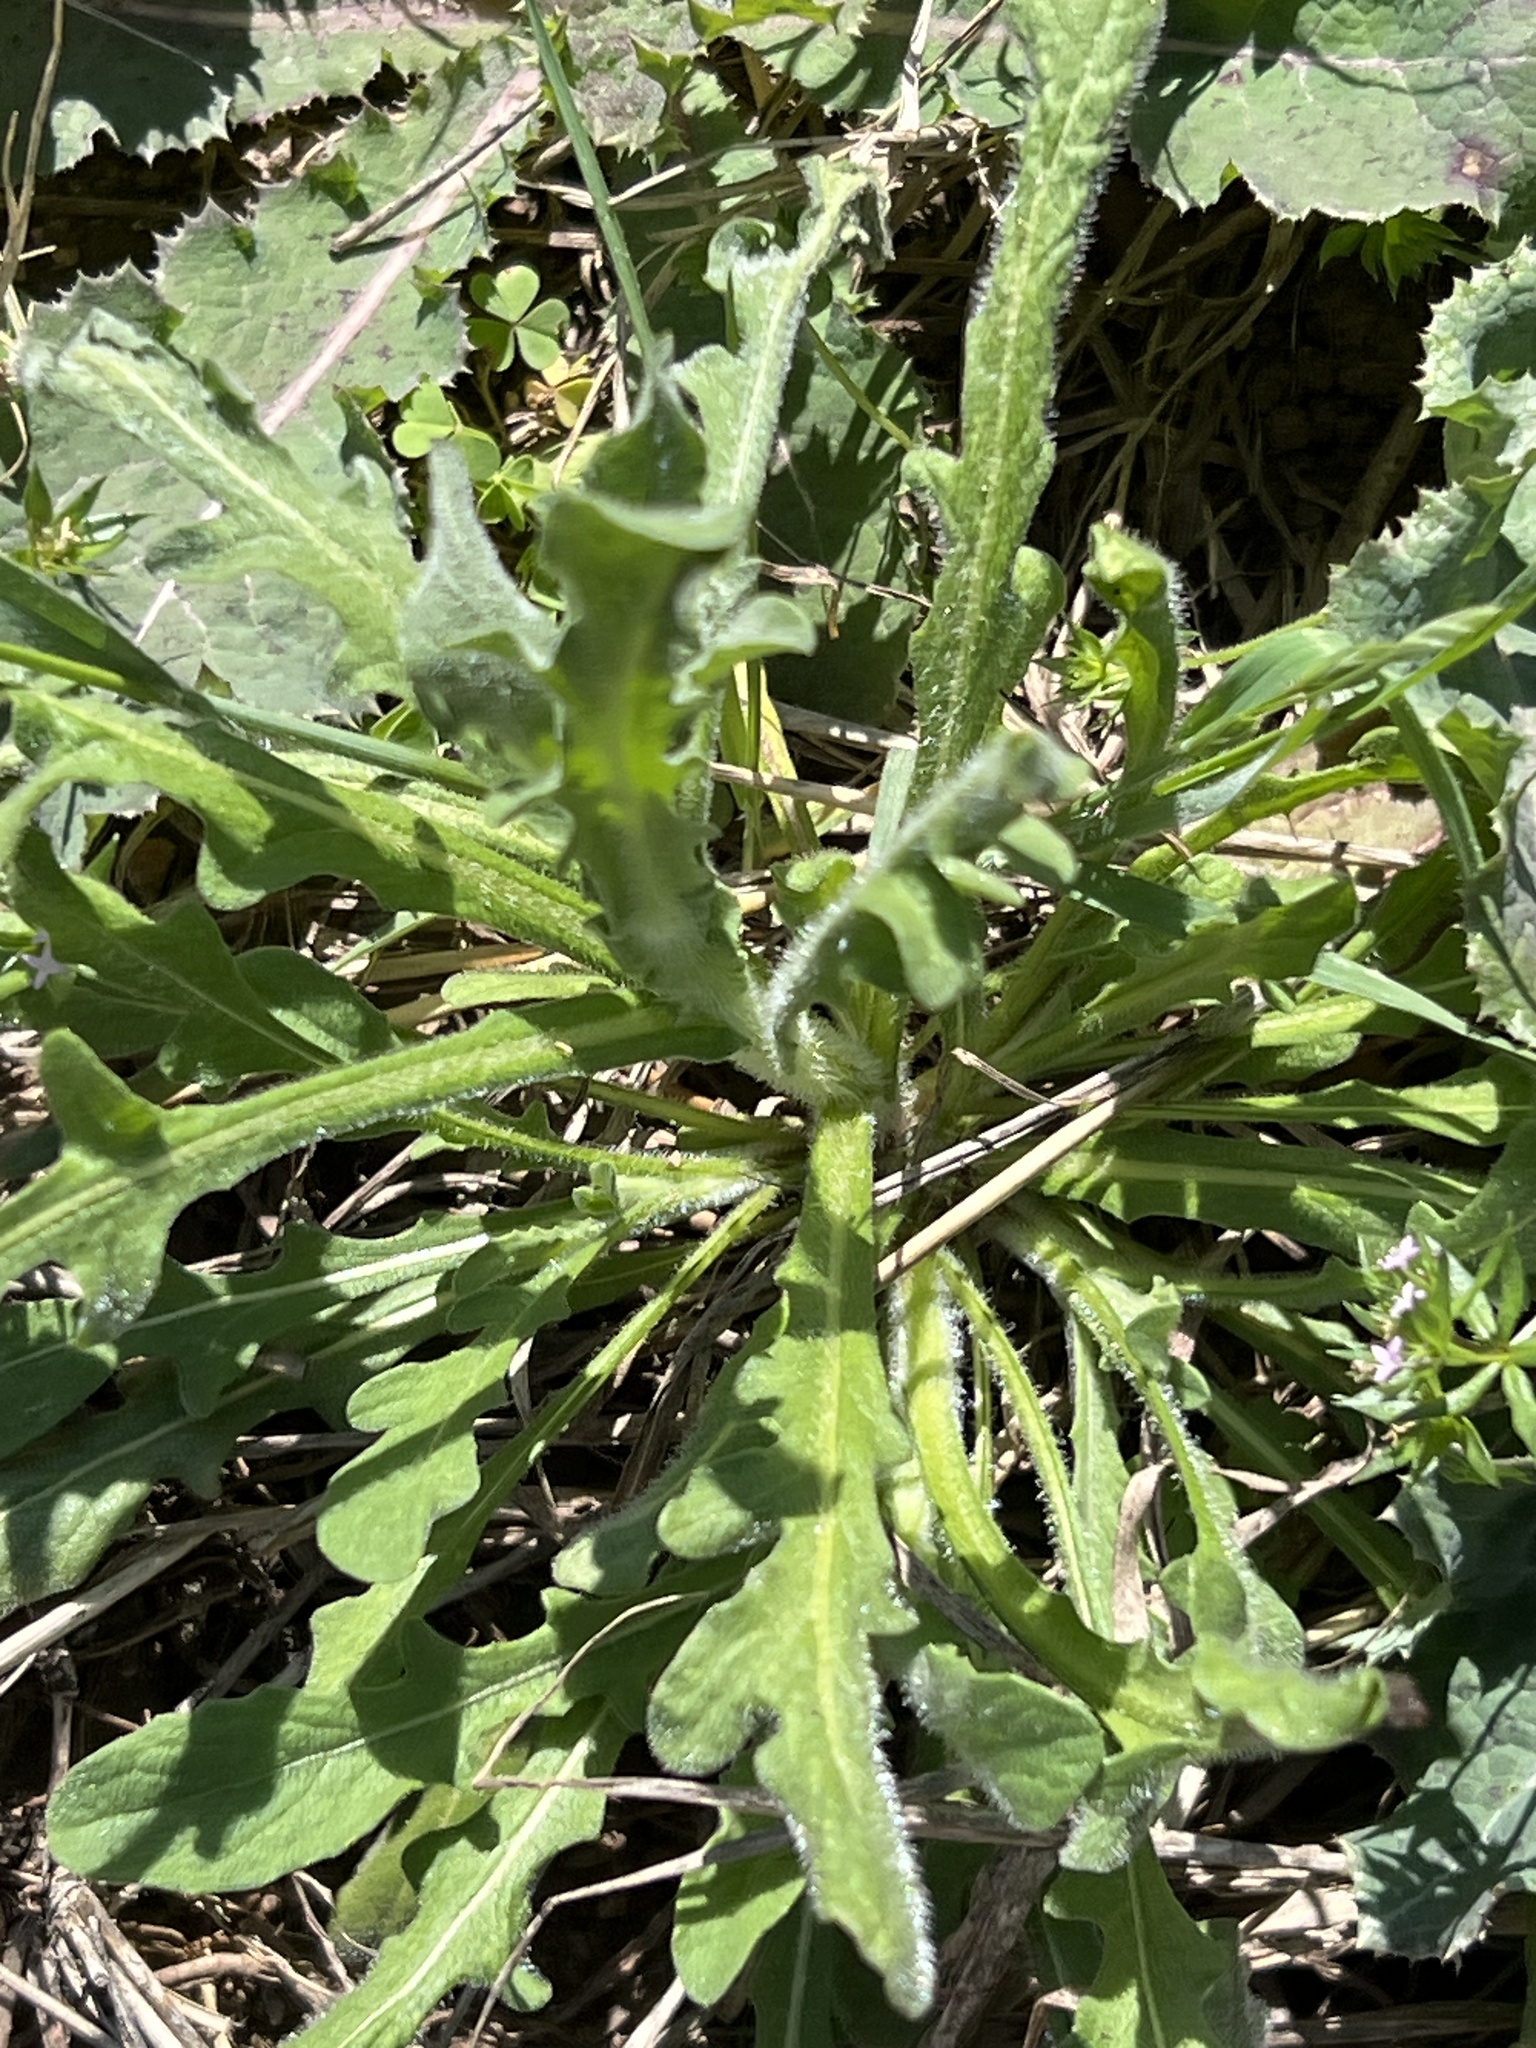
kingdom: Plantae
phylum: Tracheophyta
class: Magnoliopsida
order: Asterales
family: Asteraceae
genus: Centaurea
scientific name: Centaurea melitensis
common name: Maltese star-thistle
